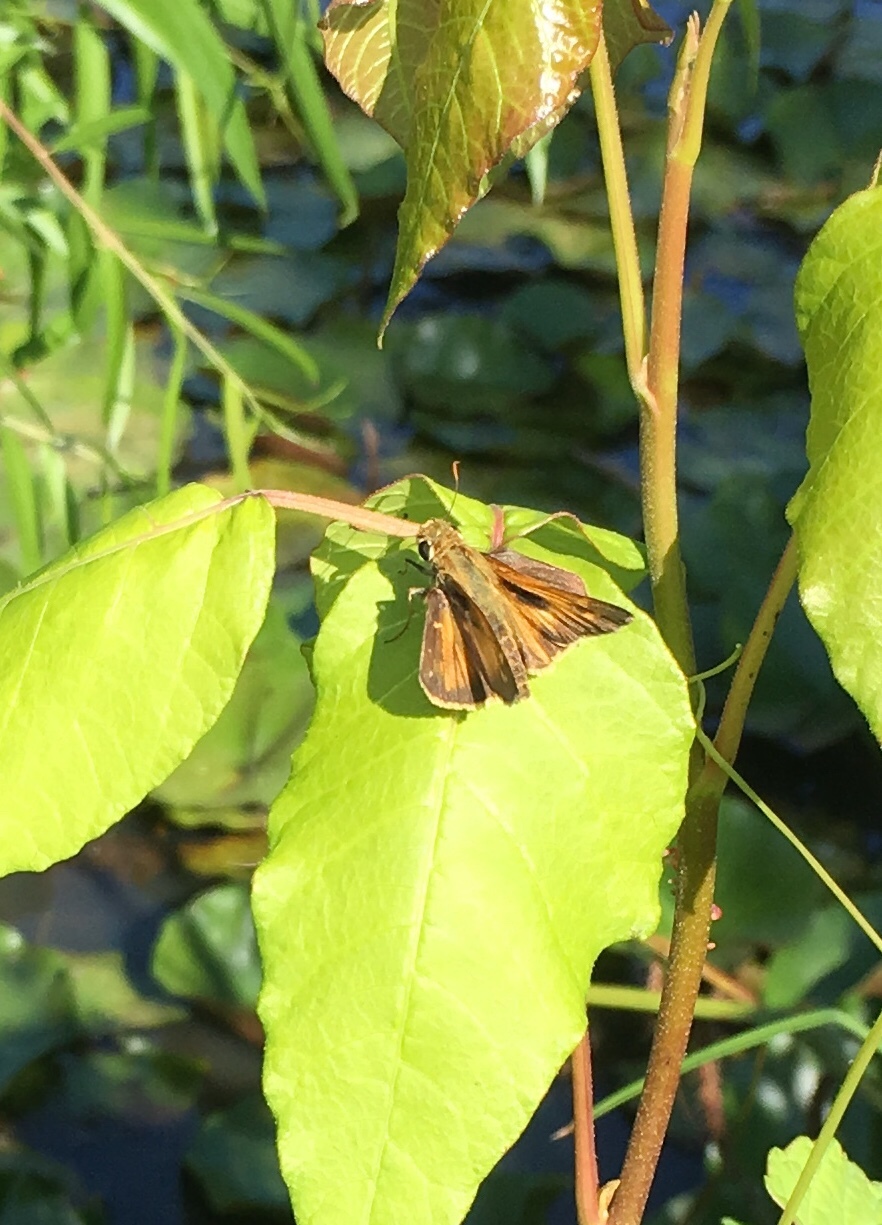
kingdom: Animalia
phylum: Arthropoda
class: Insecta
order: Lepidoptera
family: Hesperiidae
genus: Atalopedes
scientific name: Atalopedes
